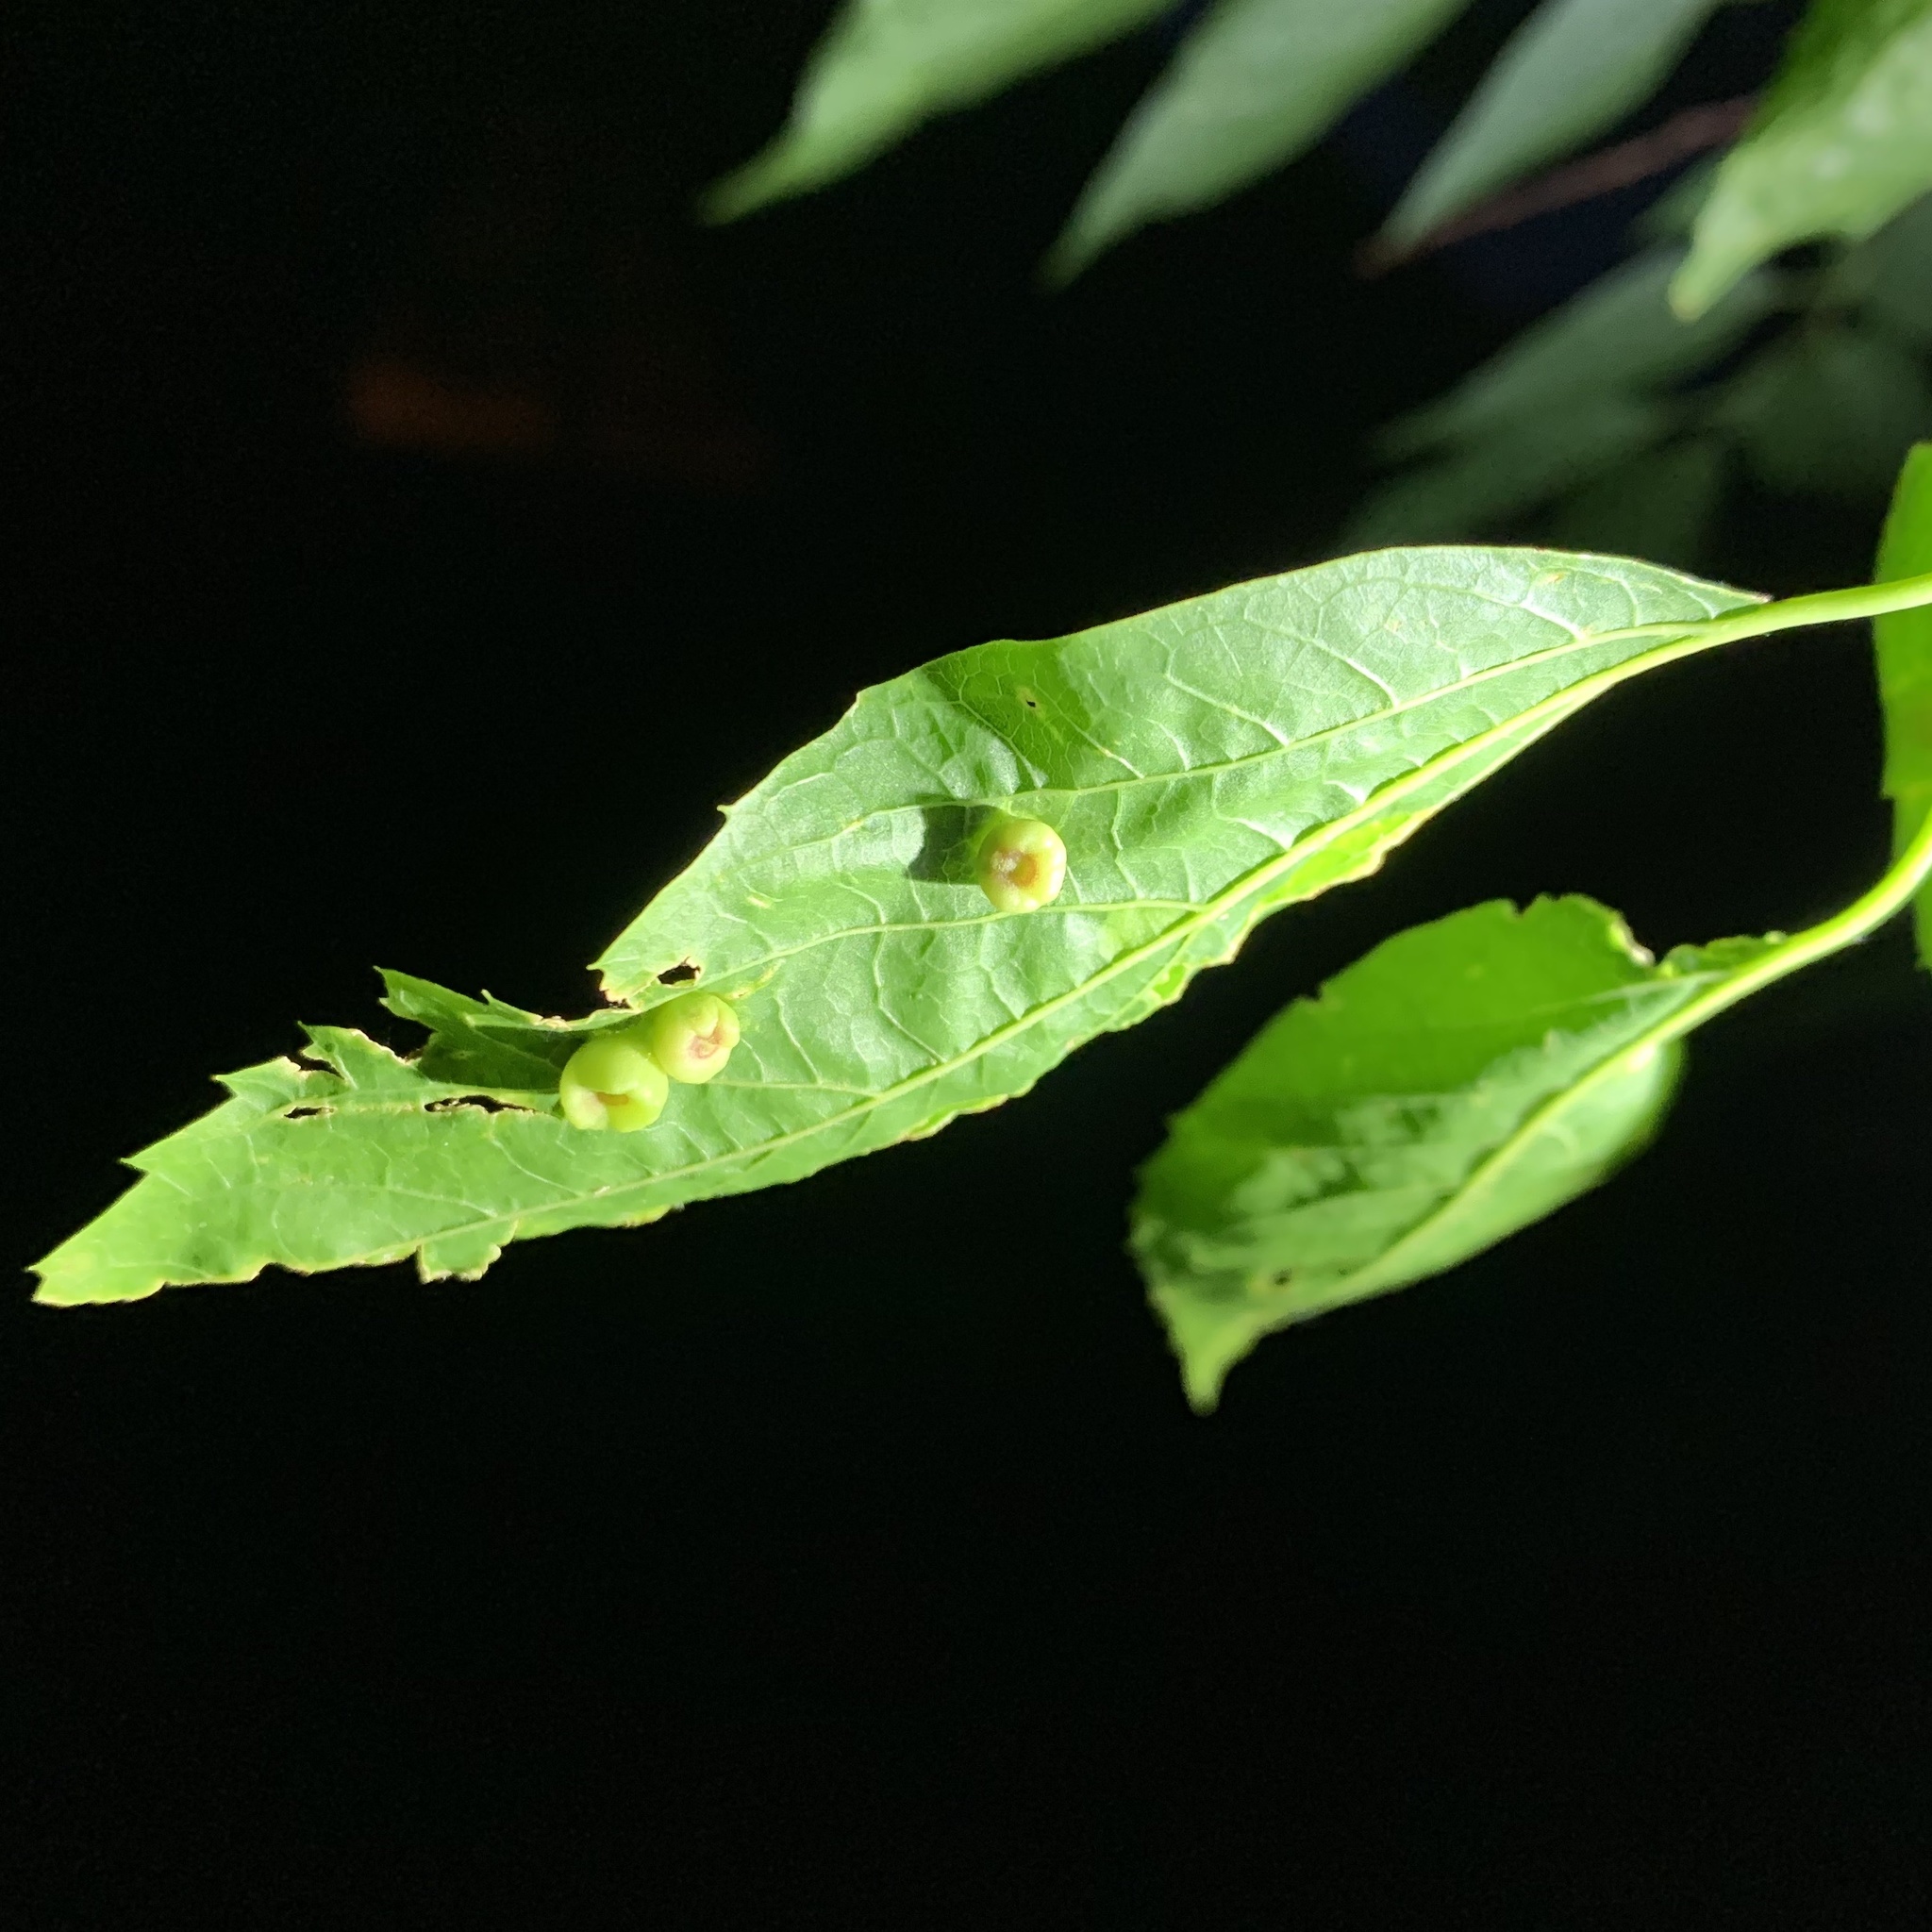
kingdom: Animalia
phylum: Arthropoda
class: Insecta
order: Hemiptera
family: Aphalaridae
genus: Pachypsylla
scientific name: Pachypsylla celtidismamma
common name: Hackberry nipplegall psyllid
